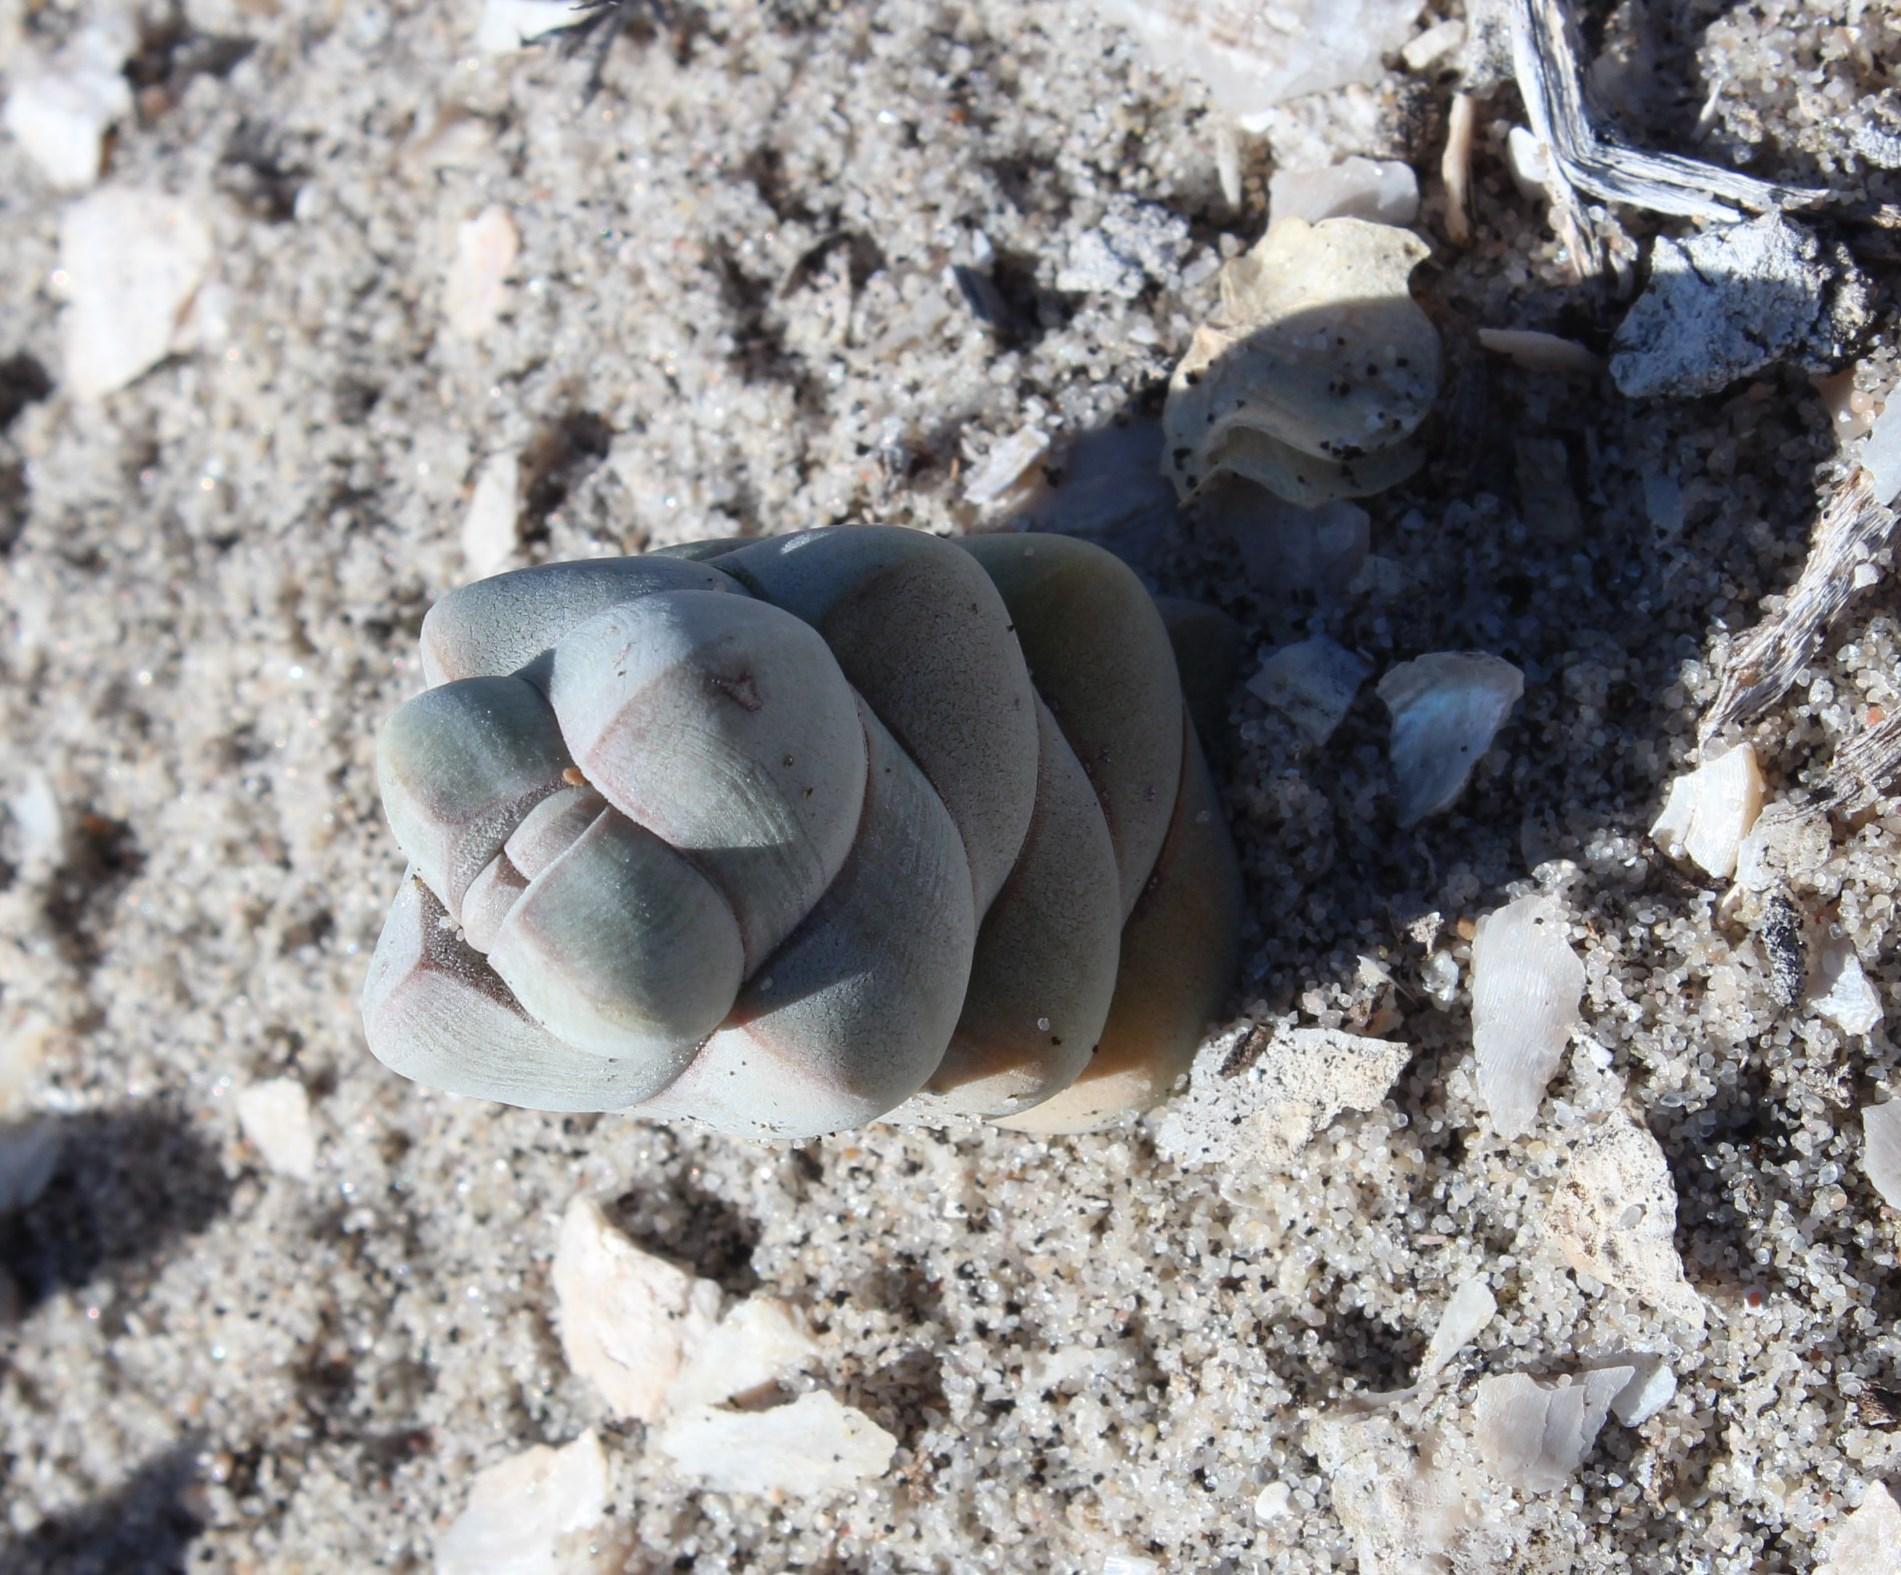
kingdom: Plantae
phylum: Tracheophyta
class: Magnoliopsida
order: Saxifragales
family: Crassulaceae
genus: Crassula
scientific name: Crassula plegmatoides
